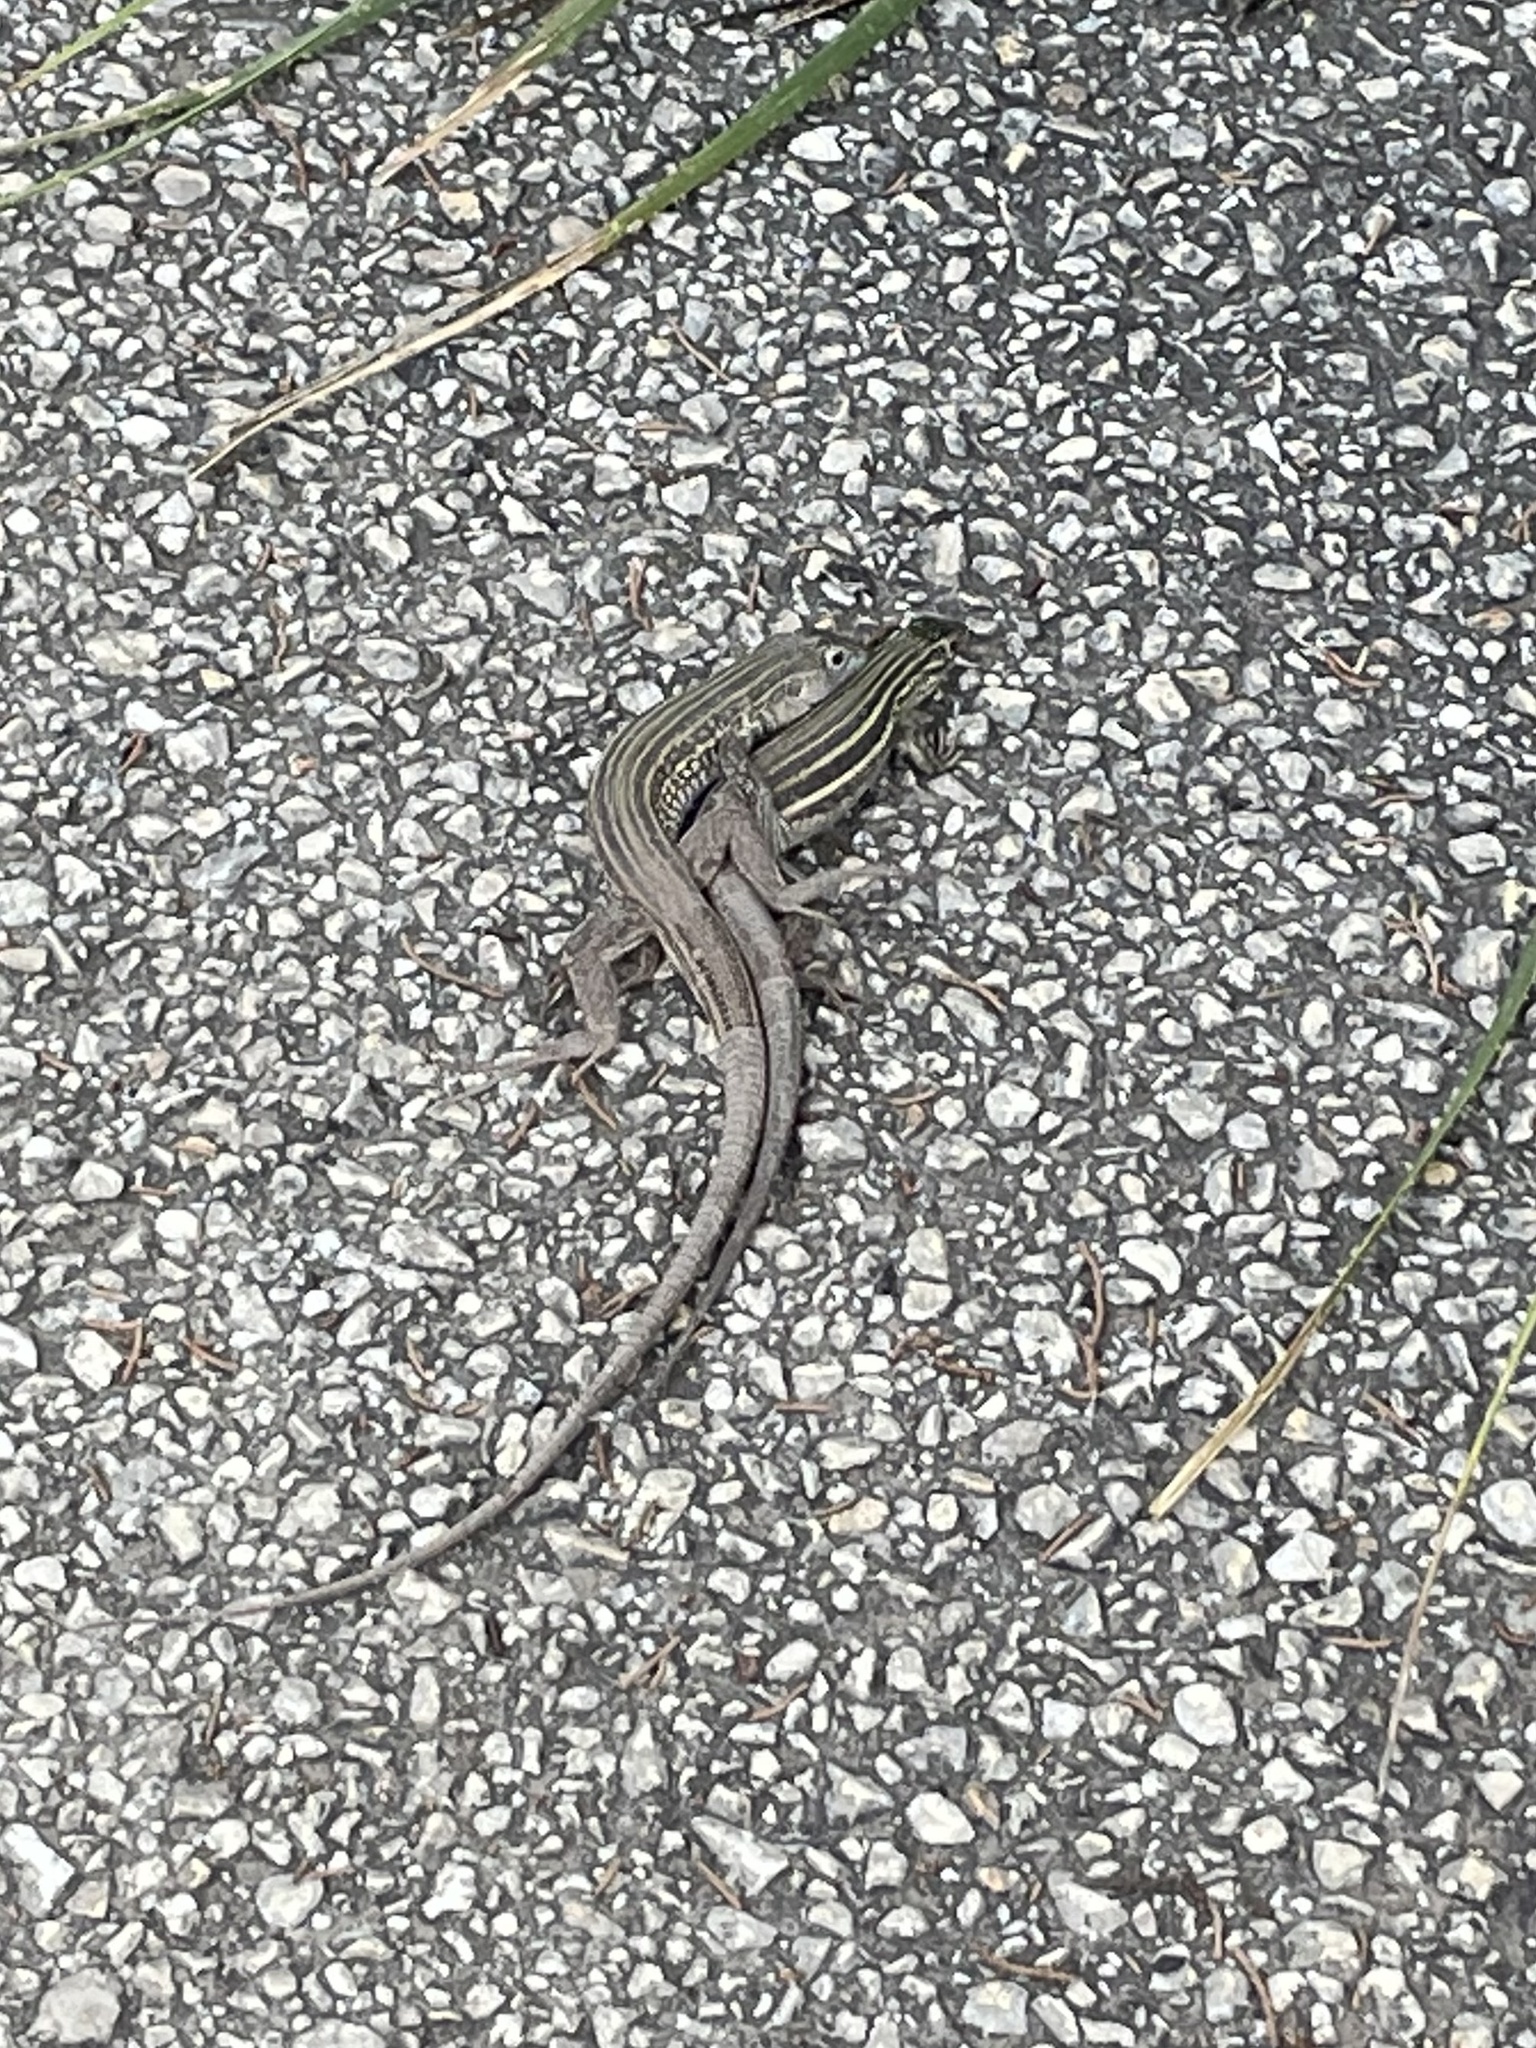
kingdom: Animalia
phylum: Chordata
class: Squamata
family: Teiidae
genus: Aspidoscelis
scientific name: Aspidoscelis gularis
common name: Eastern spotted whiptail
